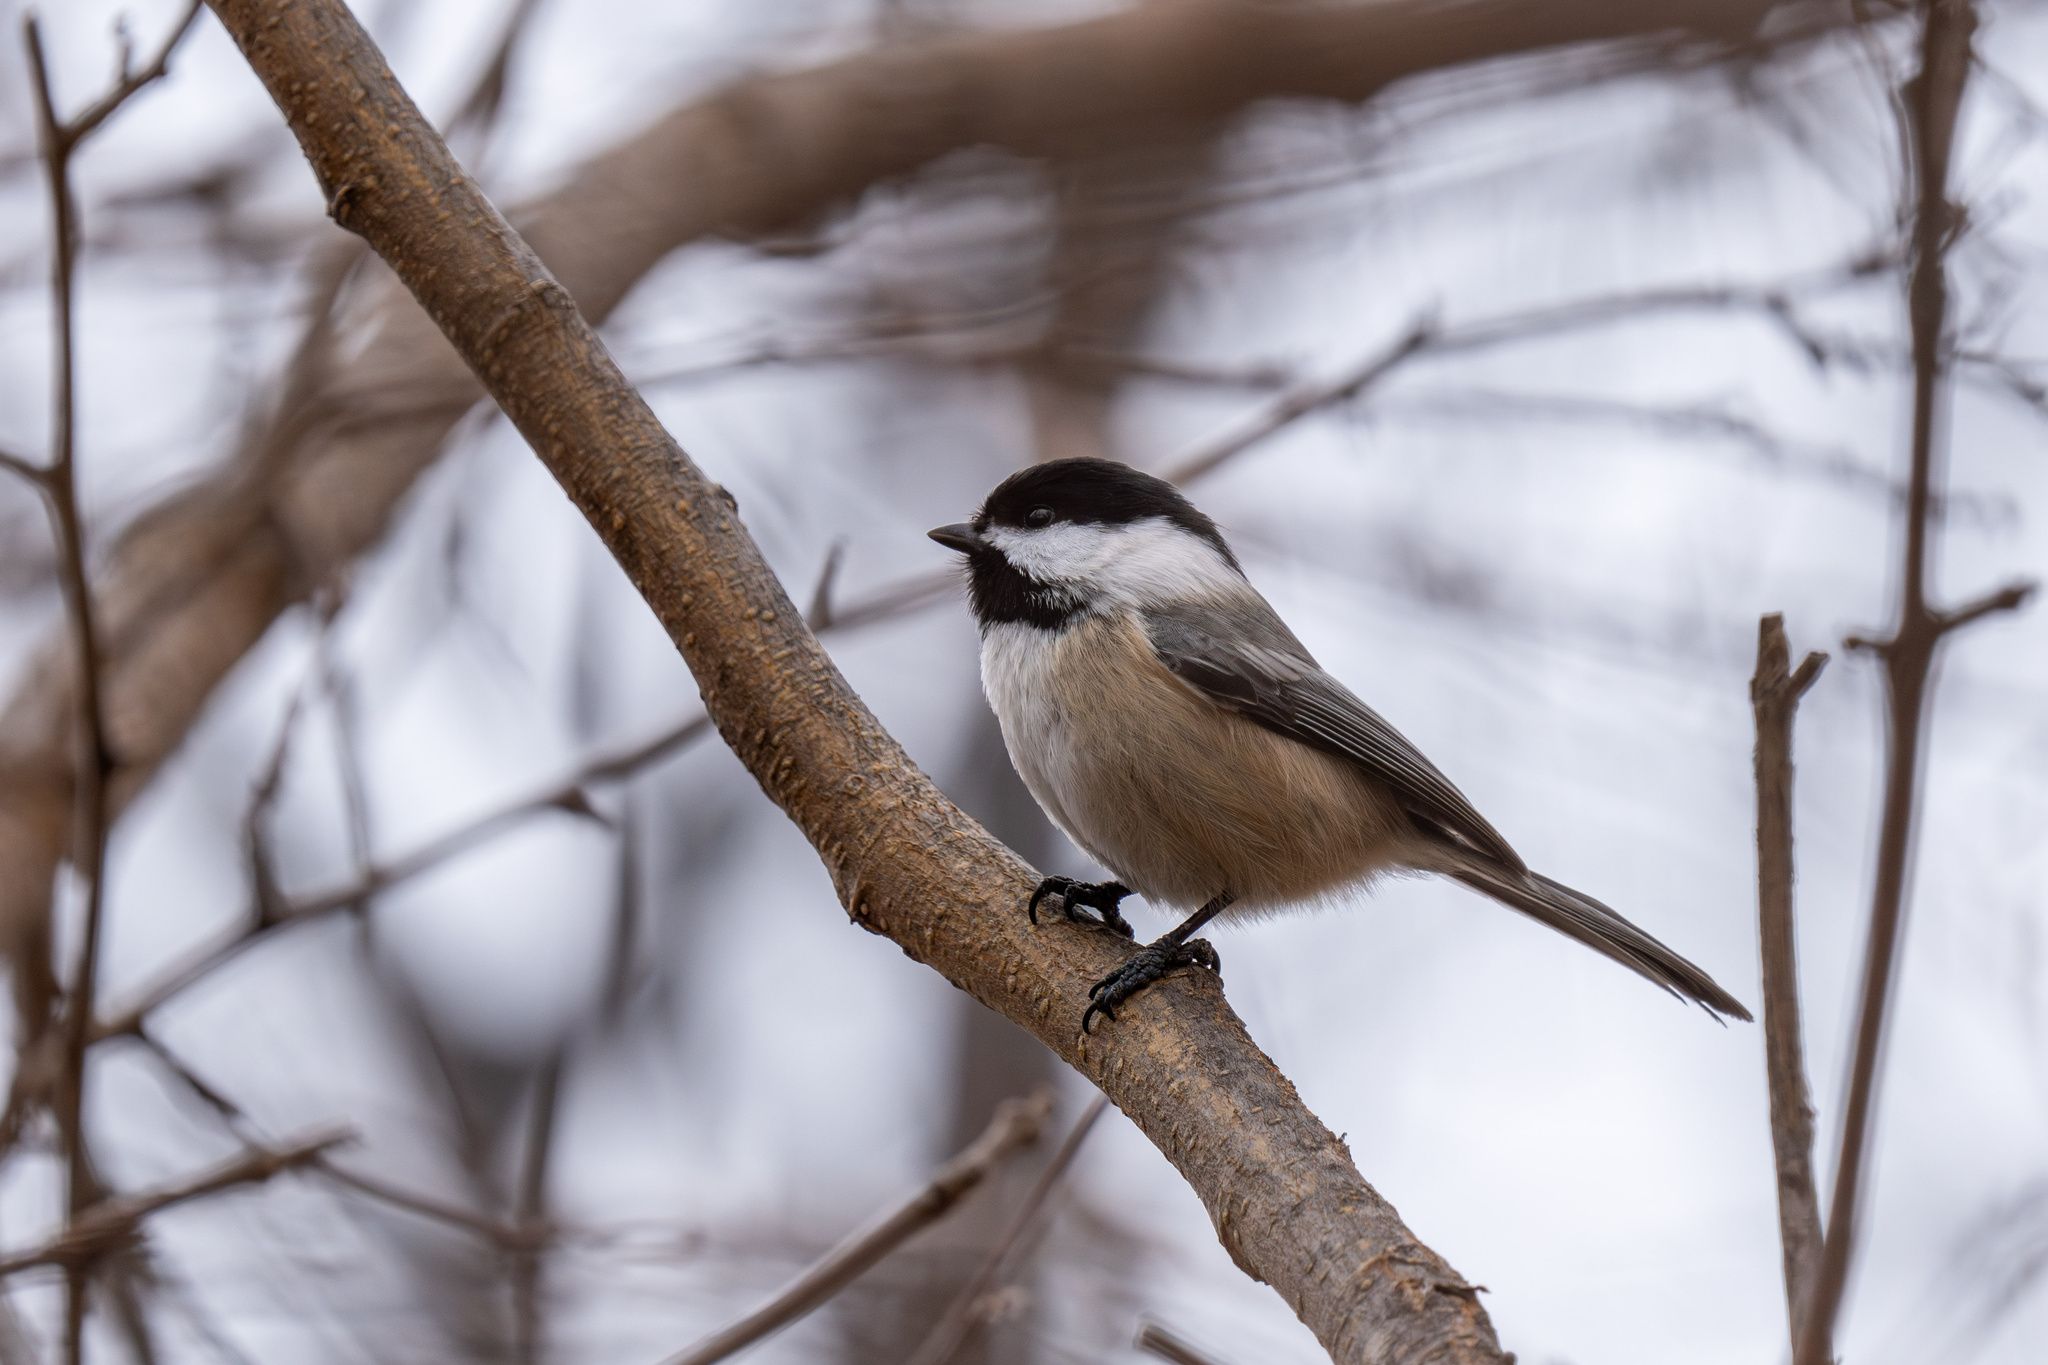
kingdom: Animalia
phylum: Chordata
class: Aves
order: Passeriformes
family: Paridae
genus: Poecile
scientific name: Poecile atricapillus
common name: Black-capped chickadee
